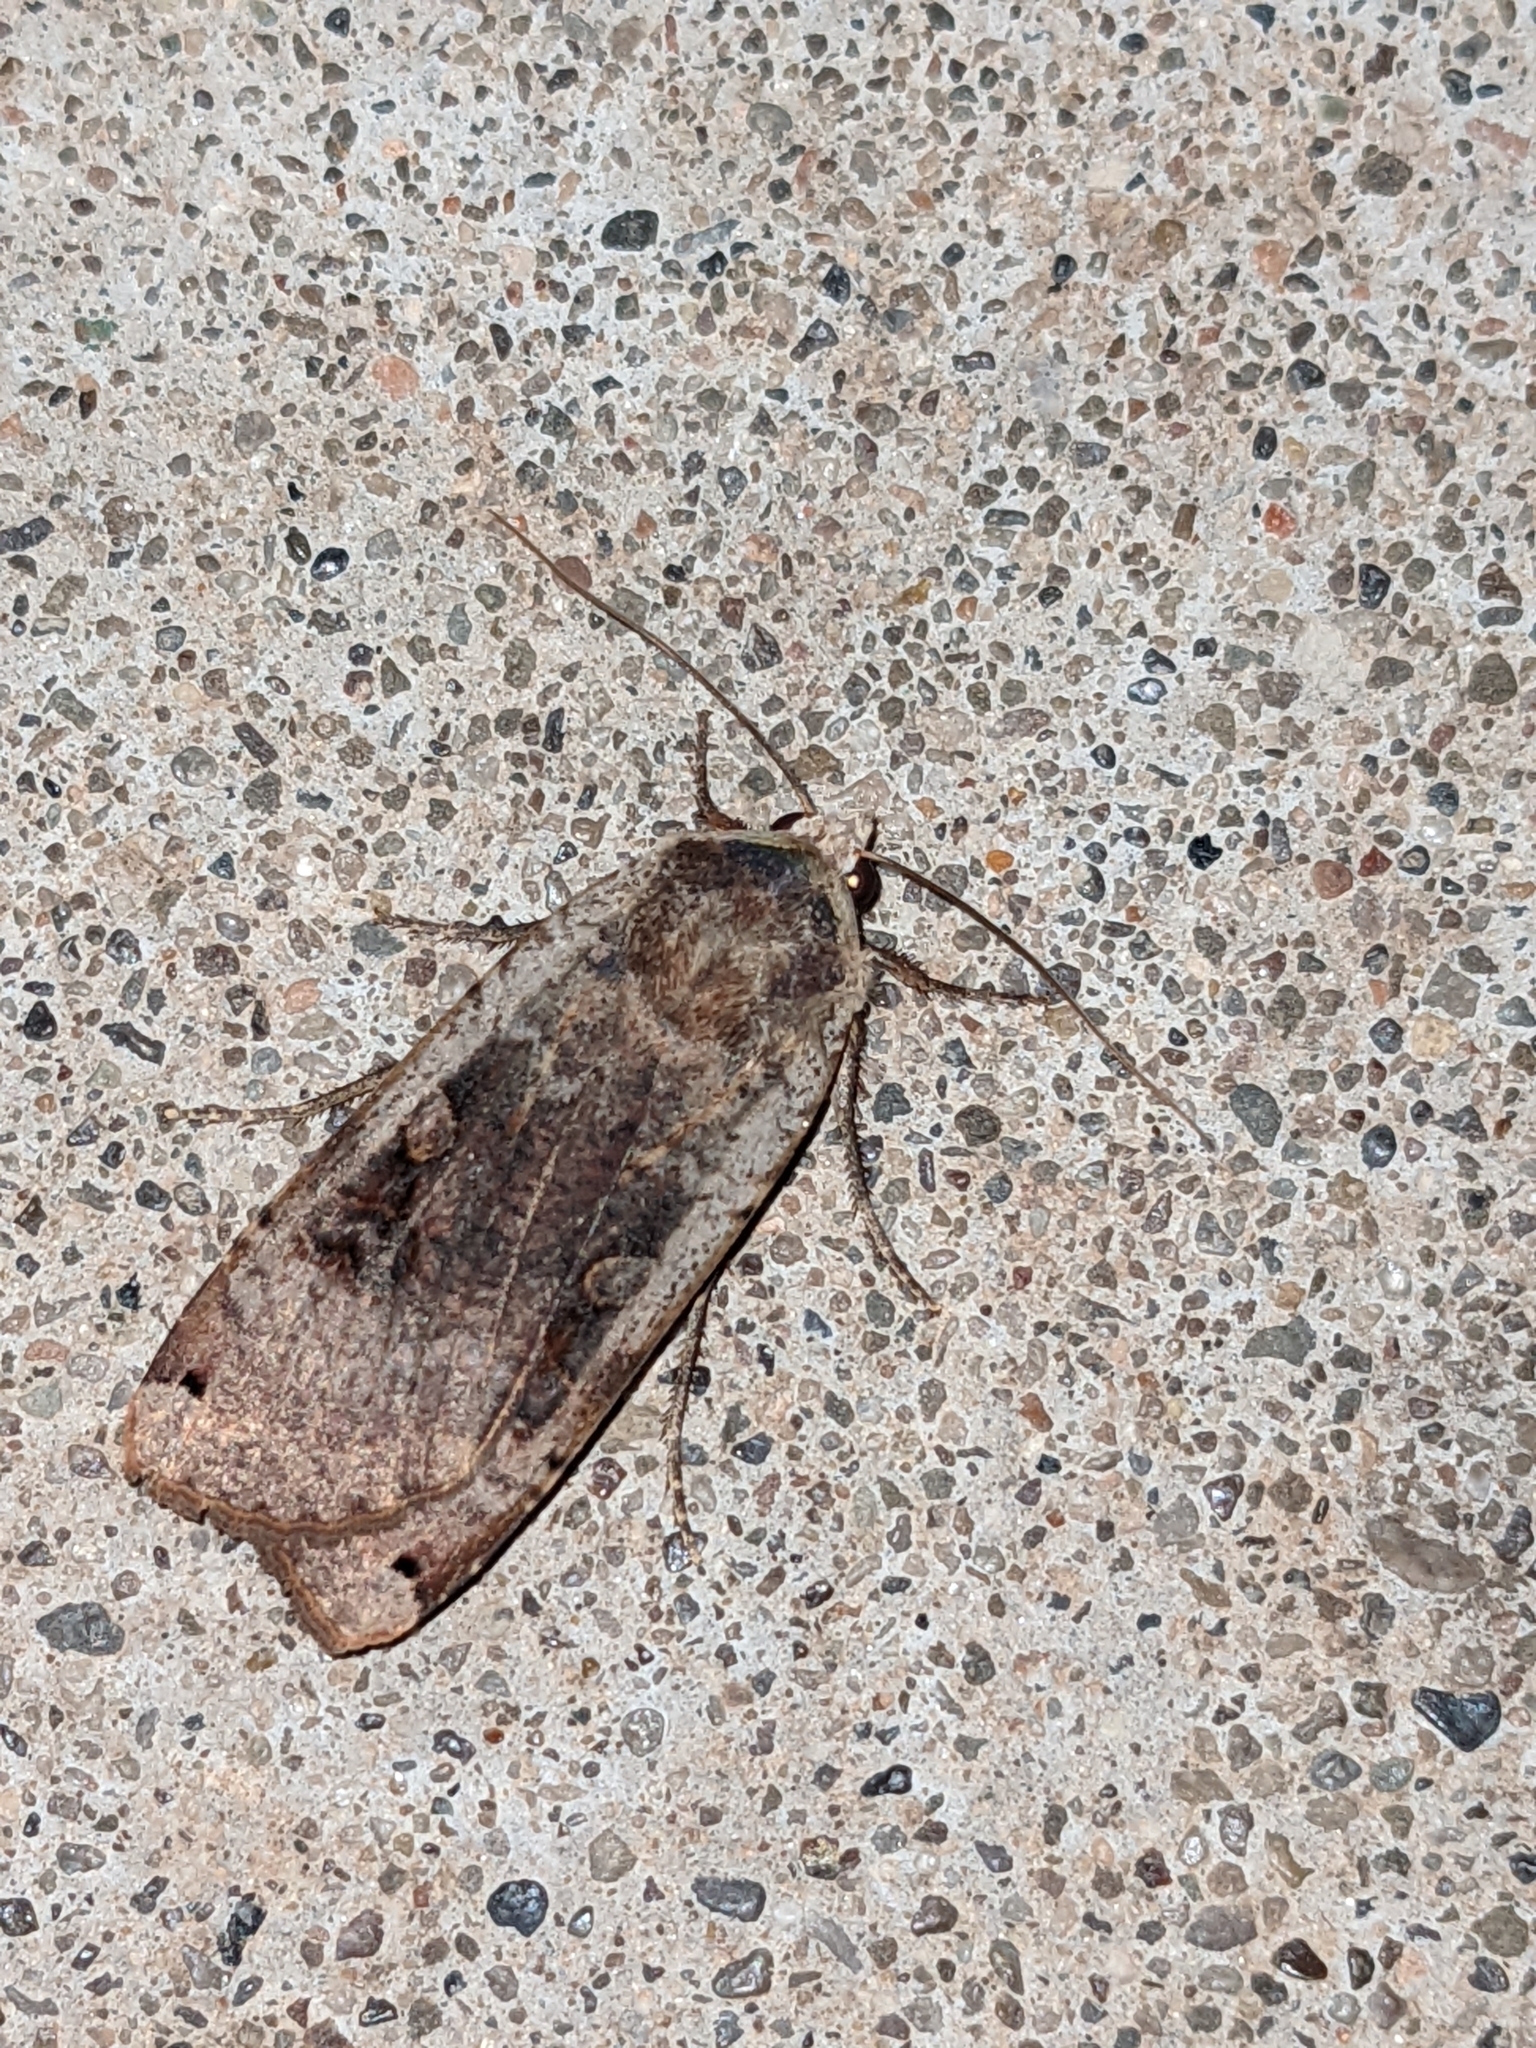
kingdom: Animalia
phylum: Arthropoda
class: Insecta
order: Lepidoptera
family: Noctuidae
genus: Noctua
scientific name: Noctua pronuba
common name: Large yellow underwing
